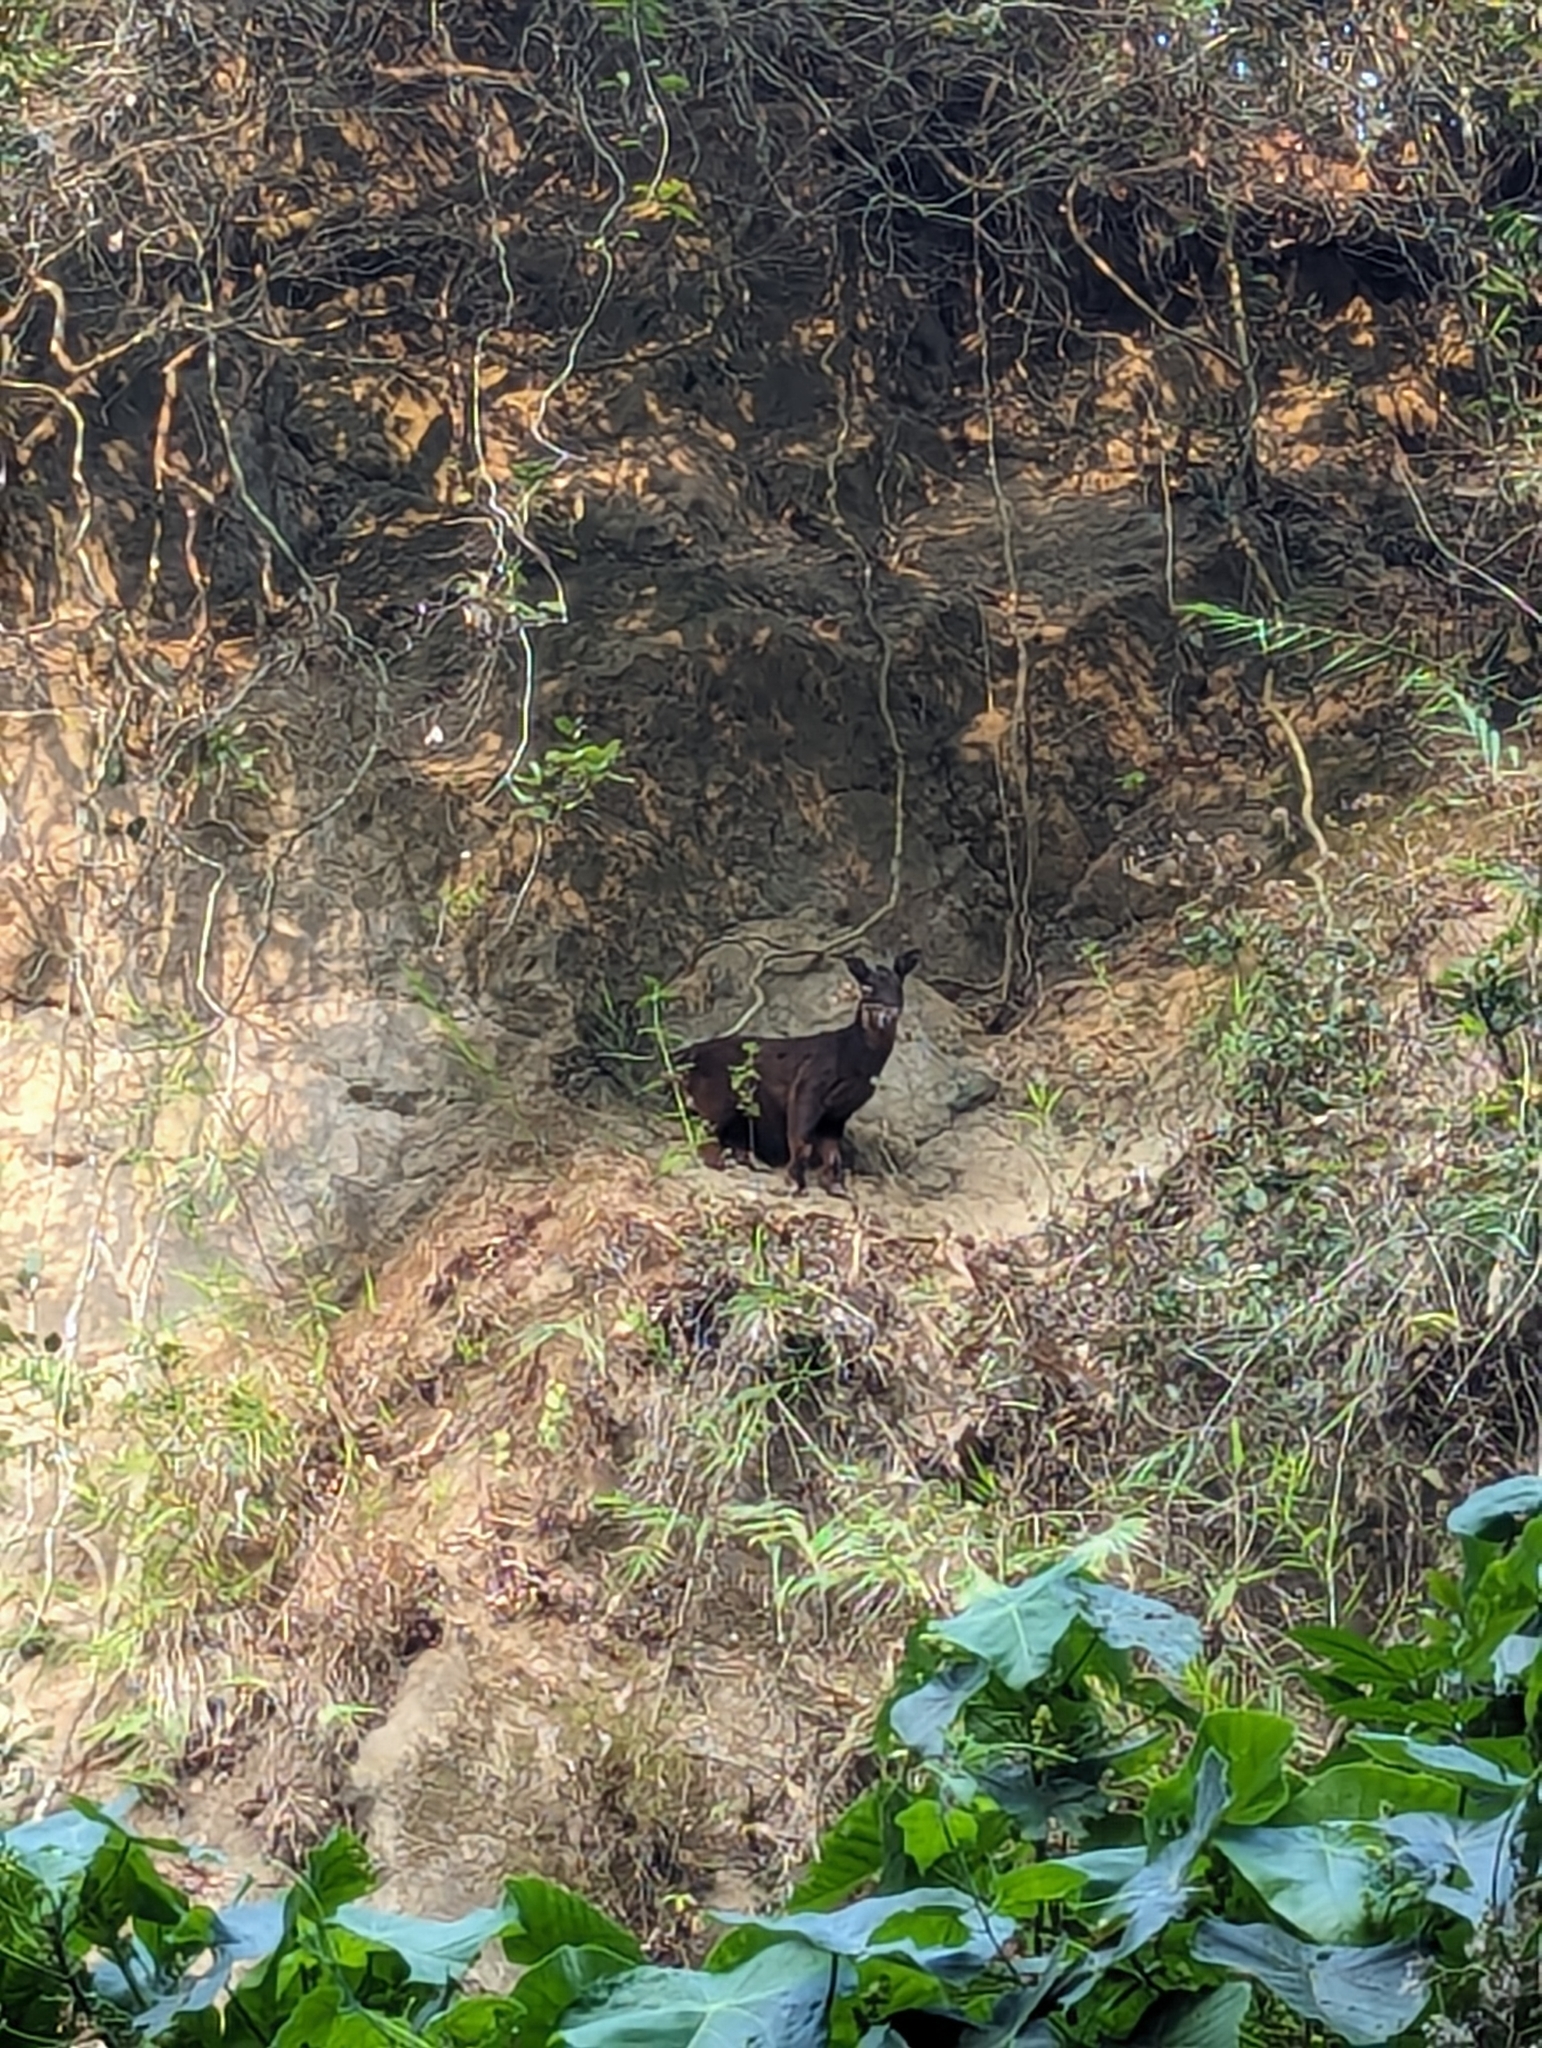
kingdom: Animalia
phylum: Chordata
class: Mammalia
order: Artiodactyla
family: Bovidae
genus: Capricornis
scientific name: Capricornis swinhoei
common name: Formosan serow
